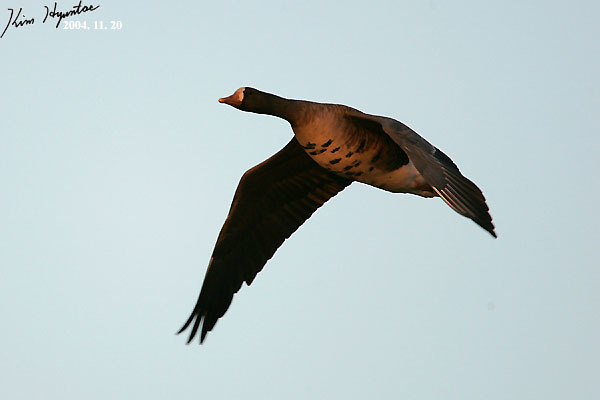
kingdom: Animalia
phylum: Chordata
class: Aves
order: Anseriformes
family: Anatidae
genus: Anser
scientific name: Anser albifrons
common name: Greater white-fronted goose
